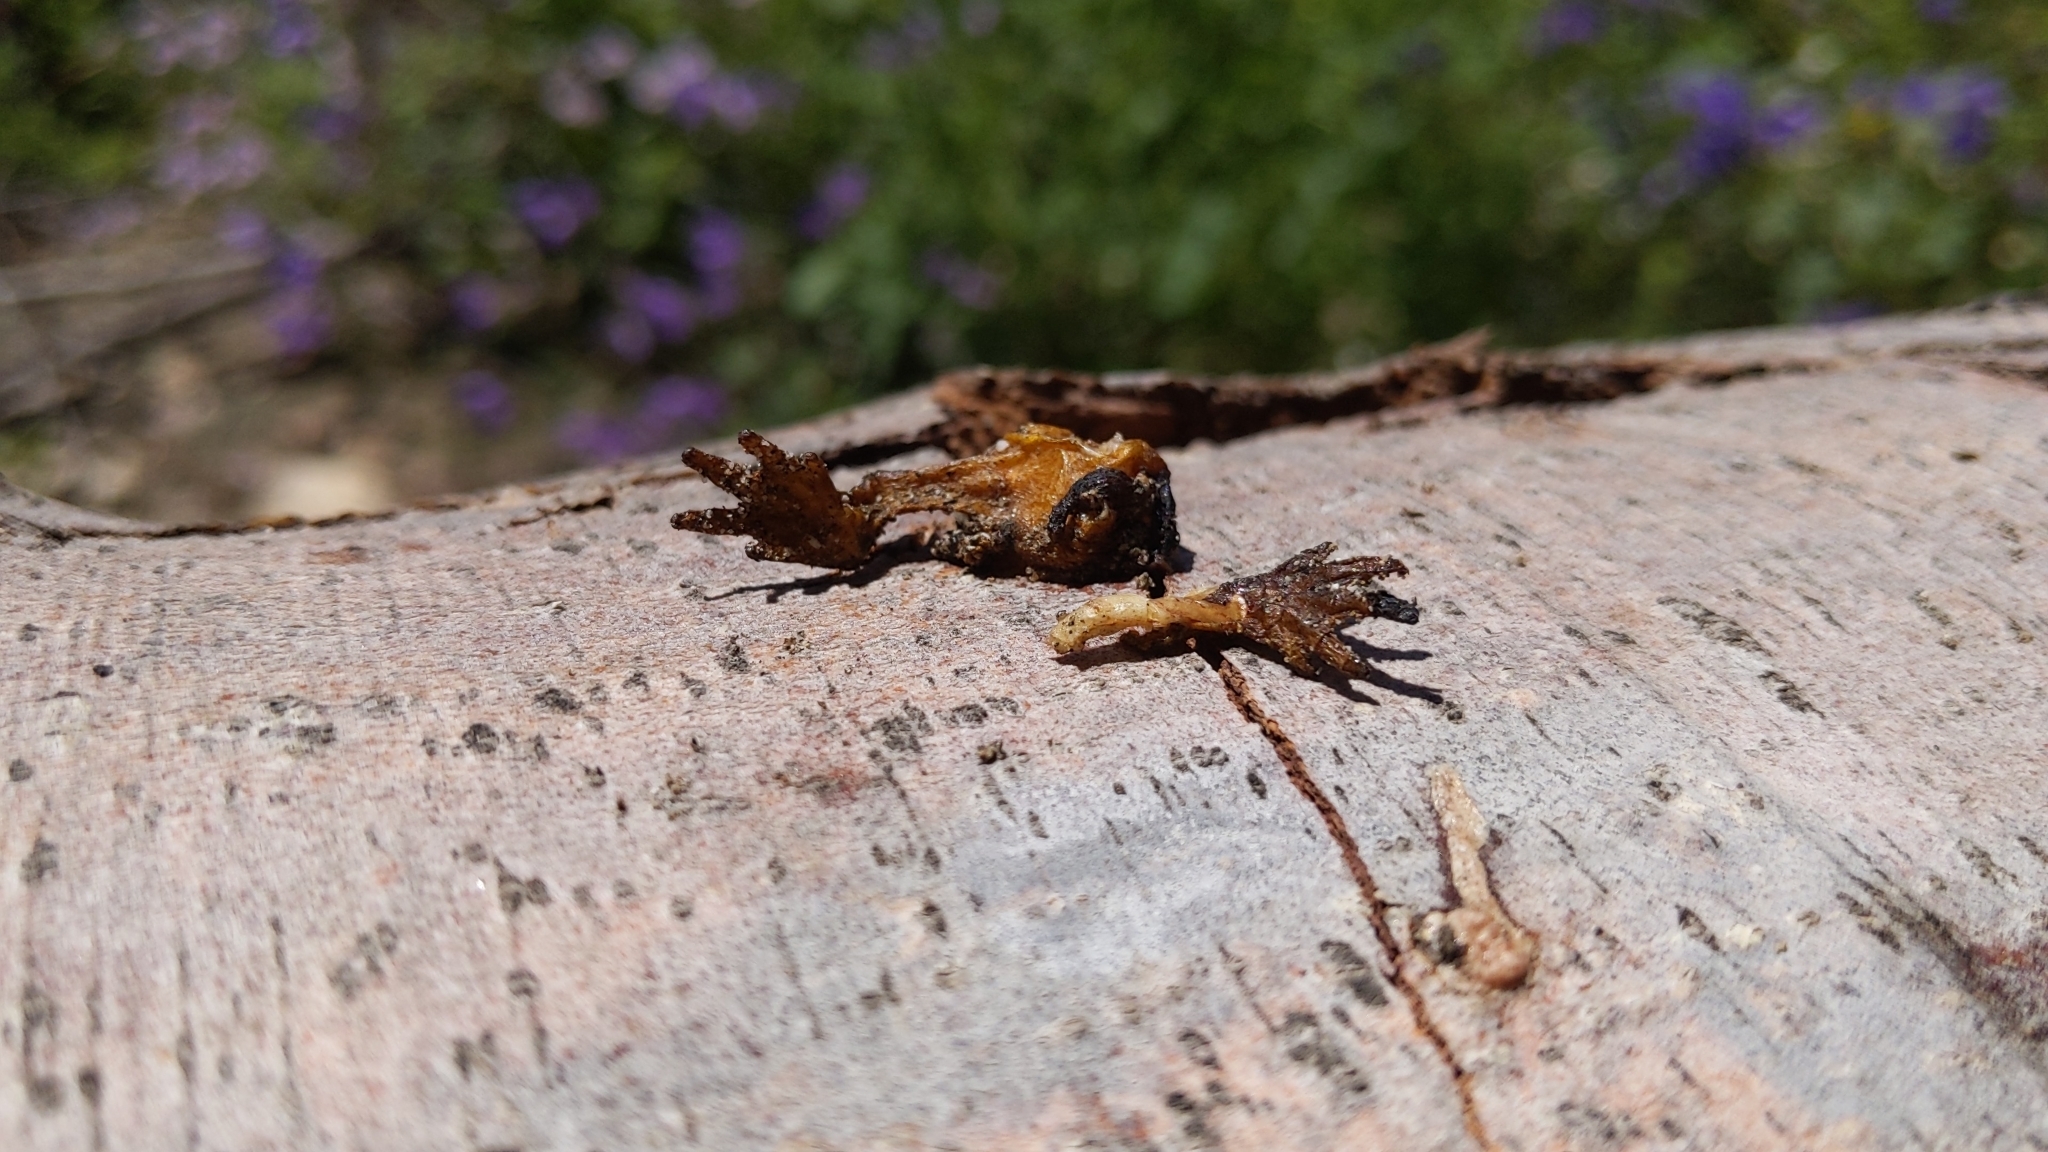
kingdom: Animalia
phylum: Chordata
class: Amphibia
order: Caudata
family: Salamandridae
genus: Taricha
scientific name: Taricha torosa
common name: California newt
